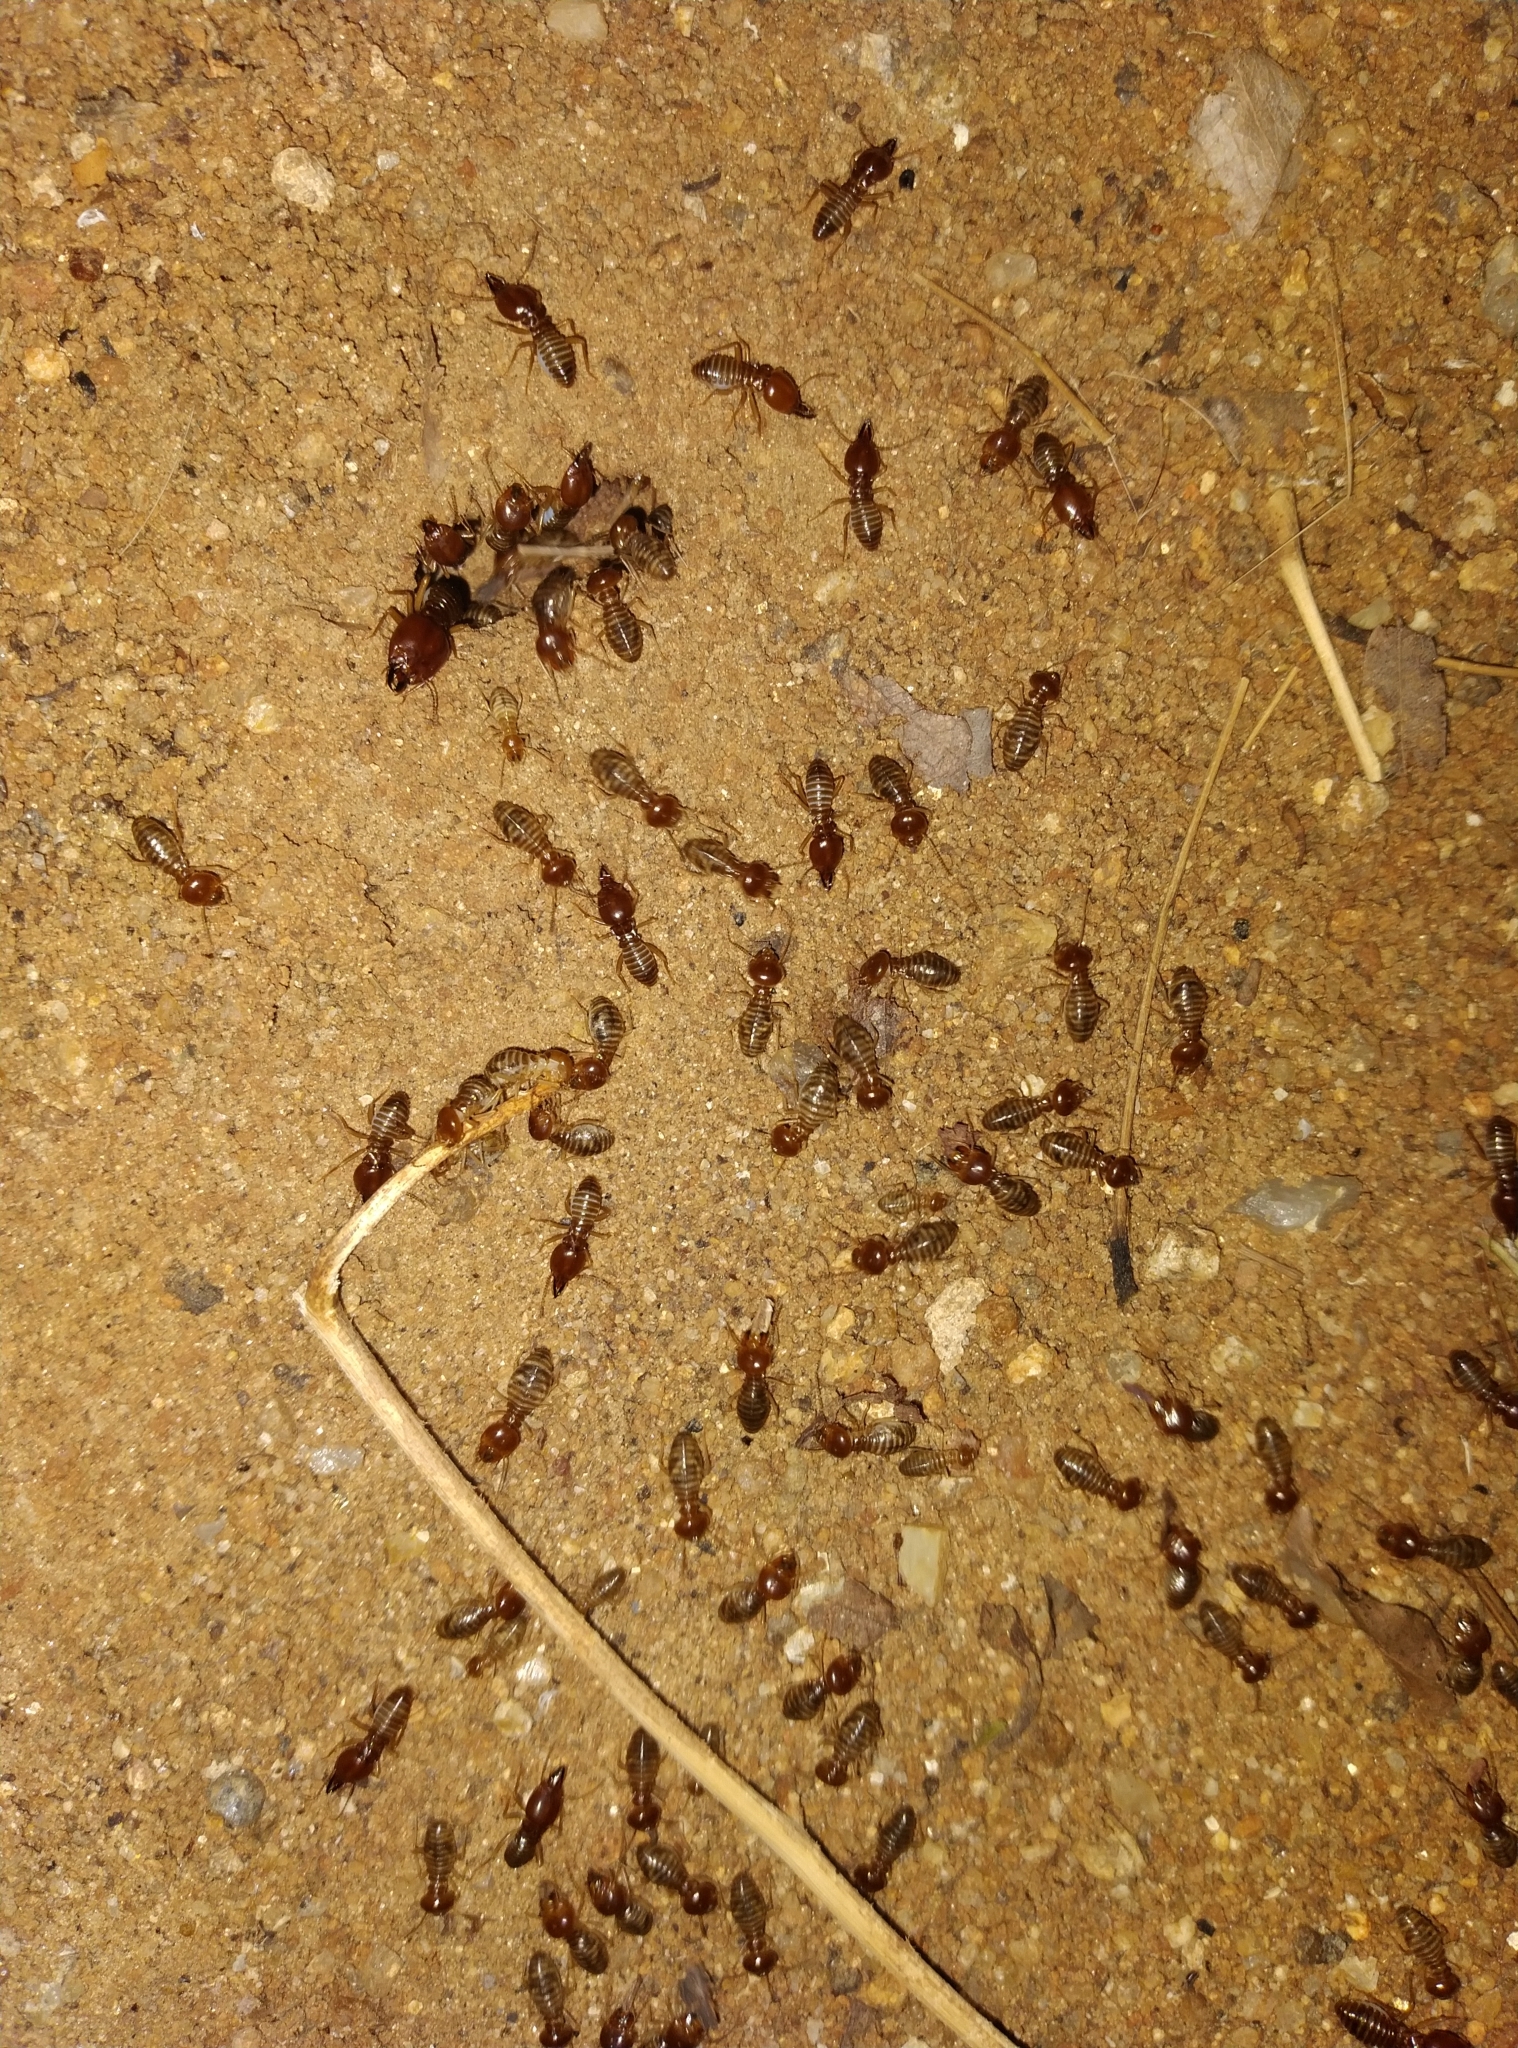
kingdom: Animalia
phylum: Arthropoda
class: Insecta
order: Blattodea
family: Termitidae
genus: Macrotermes
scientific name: Macrotermes convulsionarius
